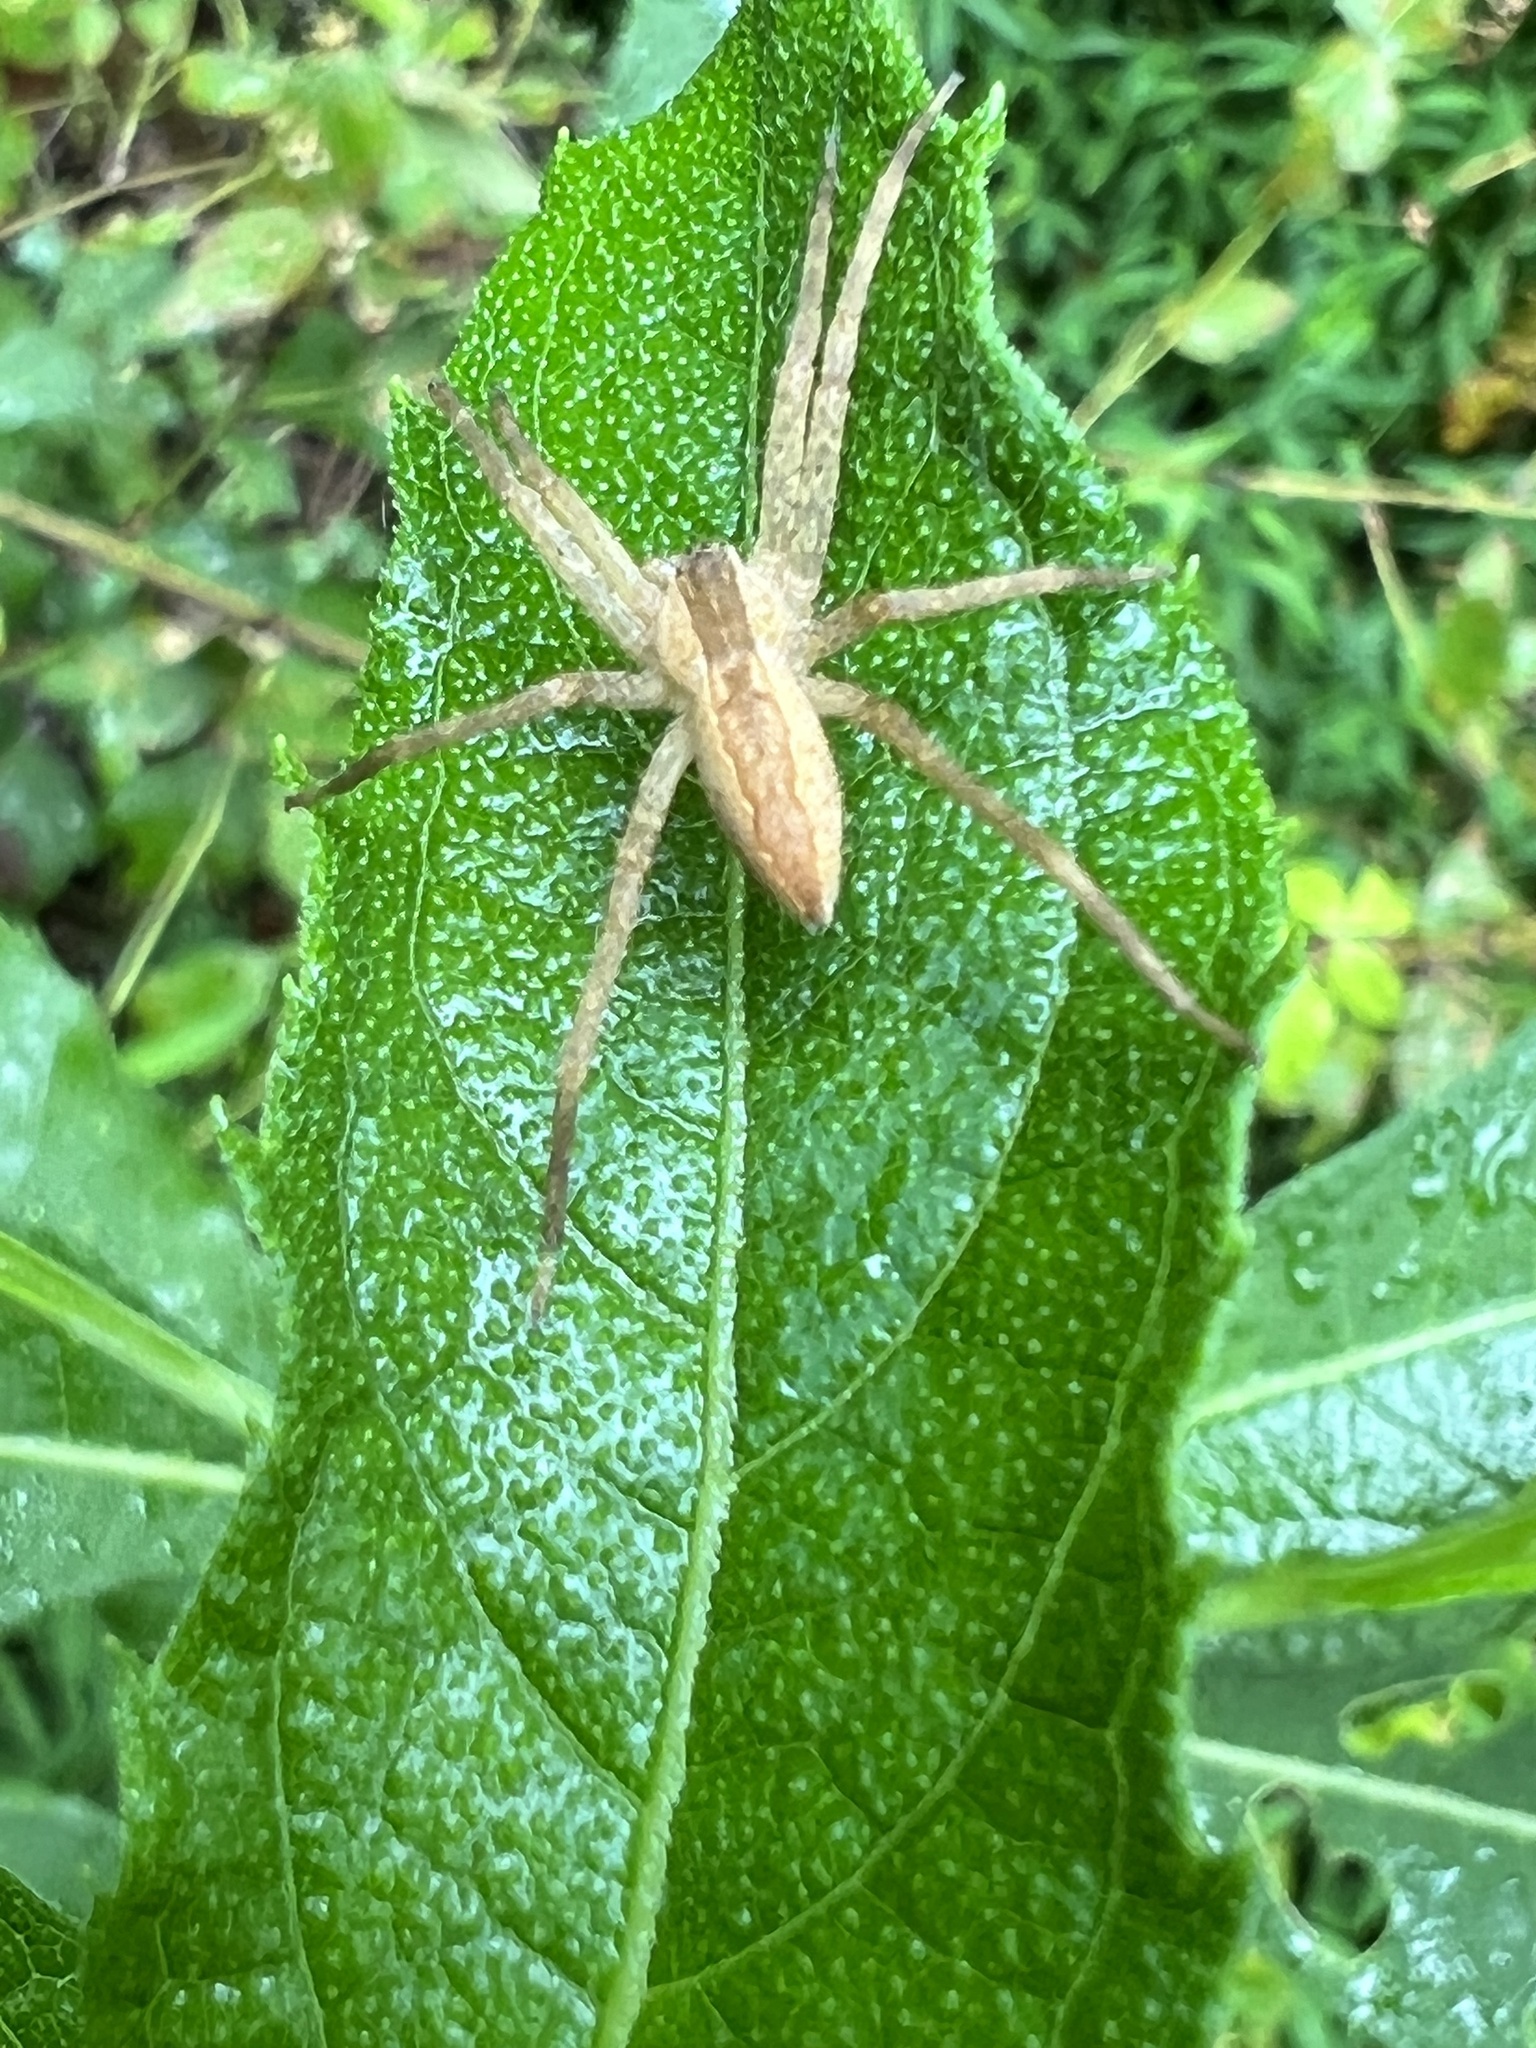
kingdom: Animalia
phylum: Arthropoda
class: Arachnida
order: Araneae
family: Pisauridae
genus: Pisaurina
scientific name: Pisaurina mira
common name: American nursery web spider
